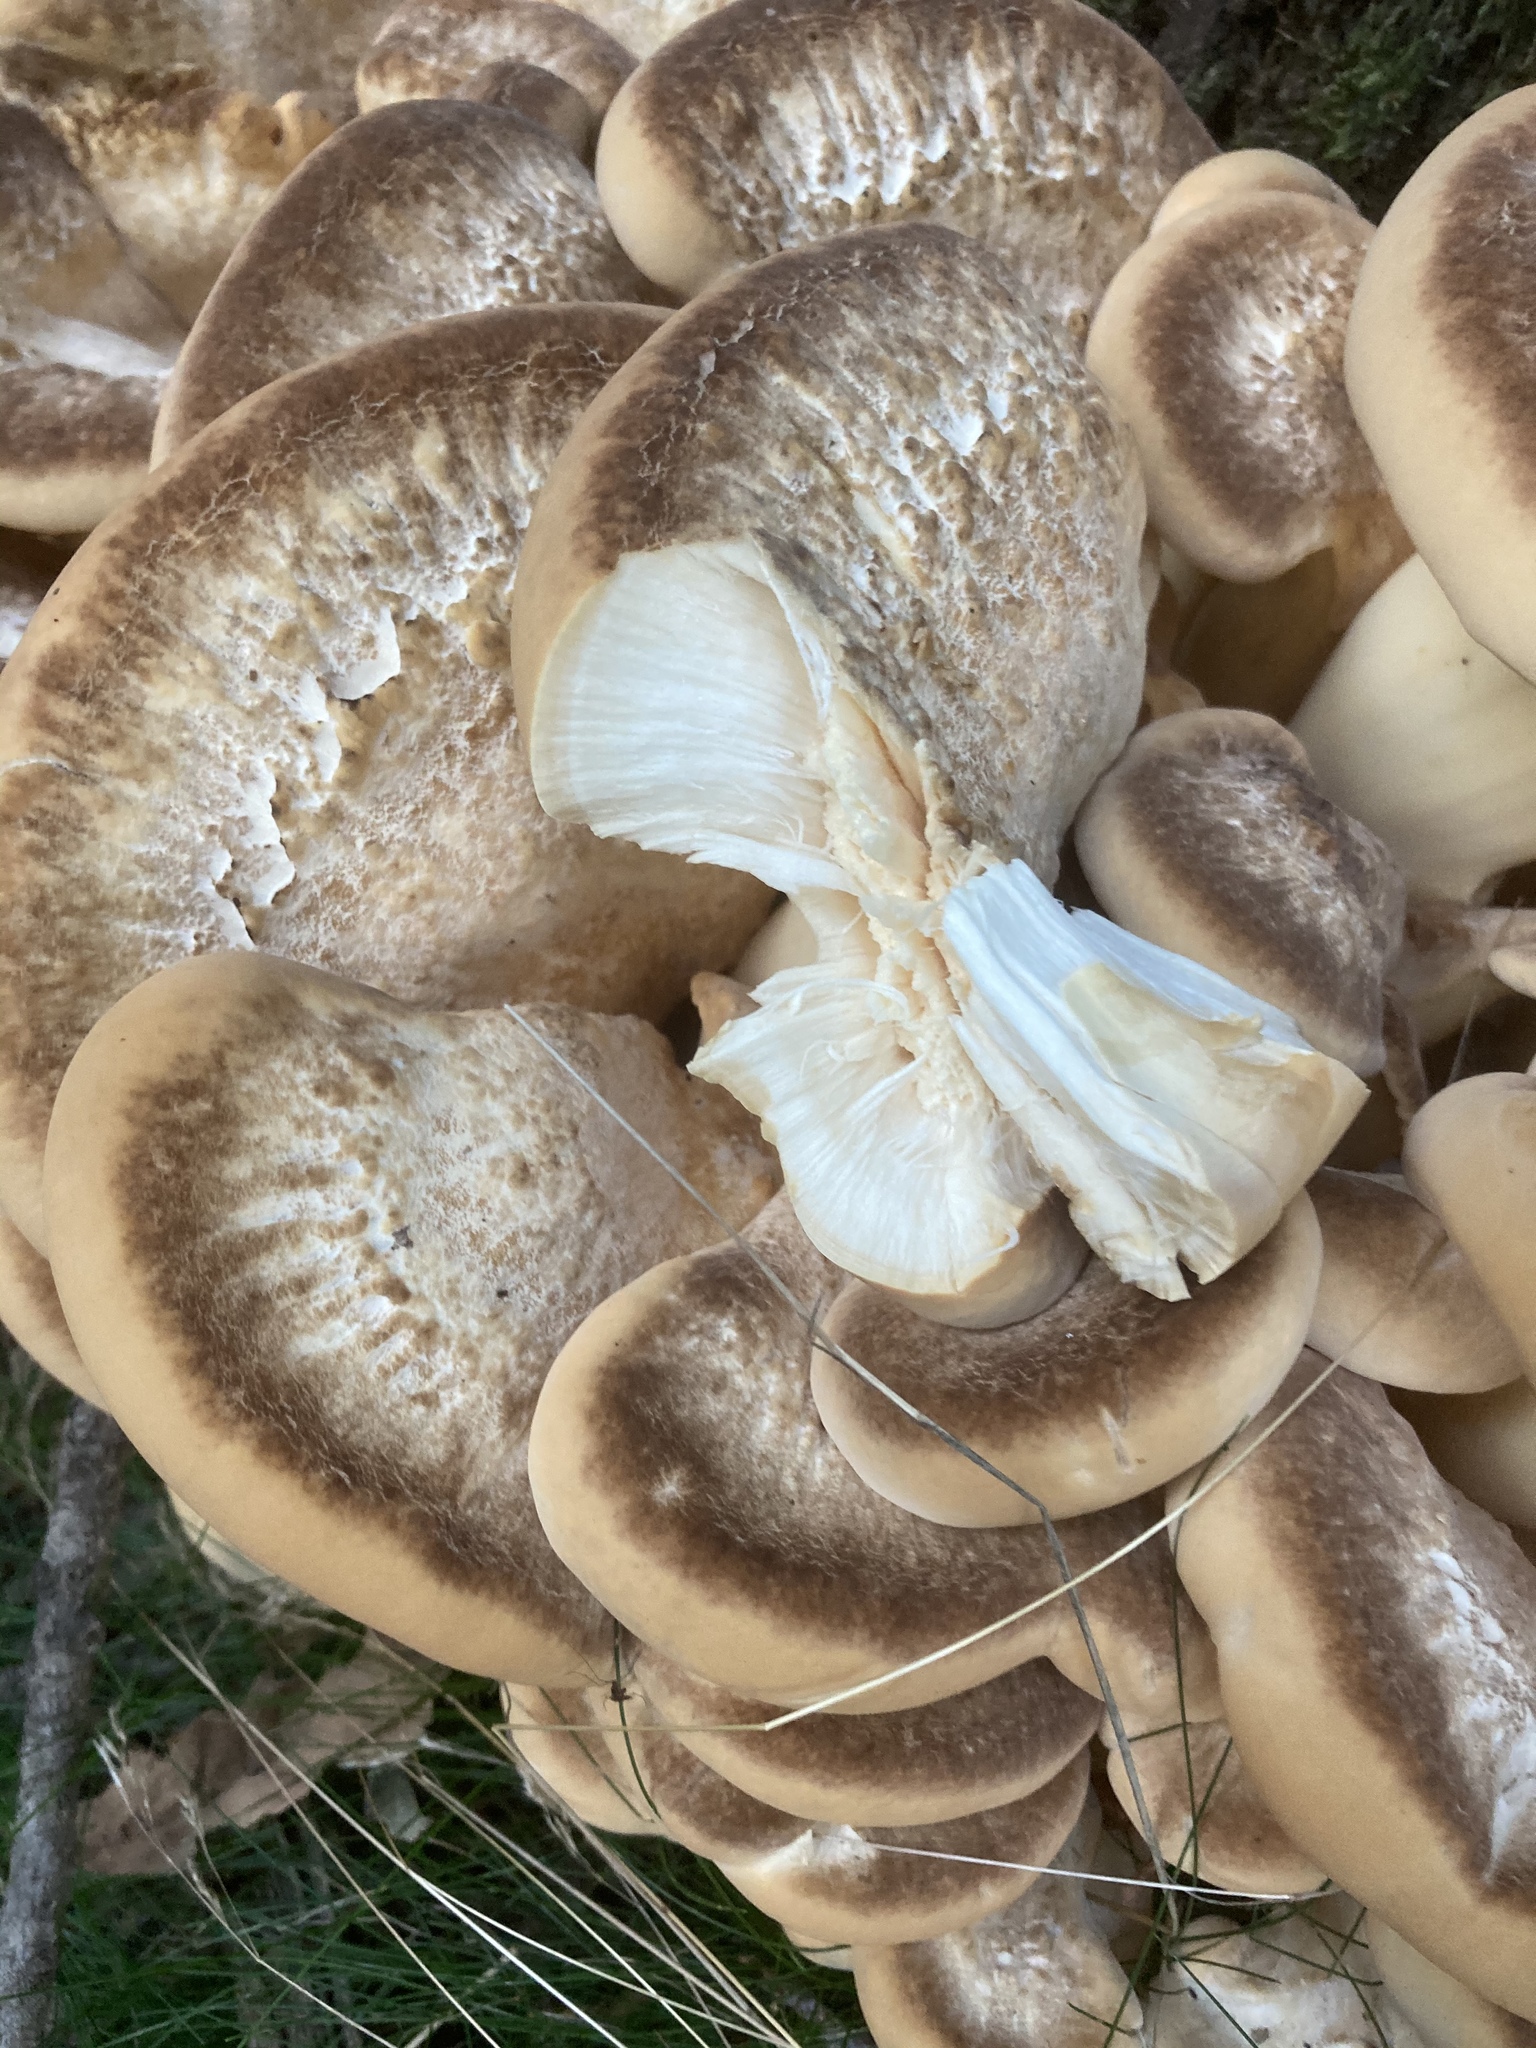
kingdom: Fungi
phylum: Basidiomycota
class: Agaricomycetes
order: Polyporales
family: Meripilaceae
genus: Meripilus
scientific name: Meripilus giganteus
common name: Giant polypore
